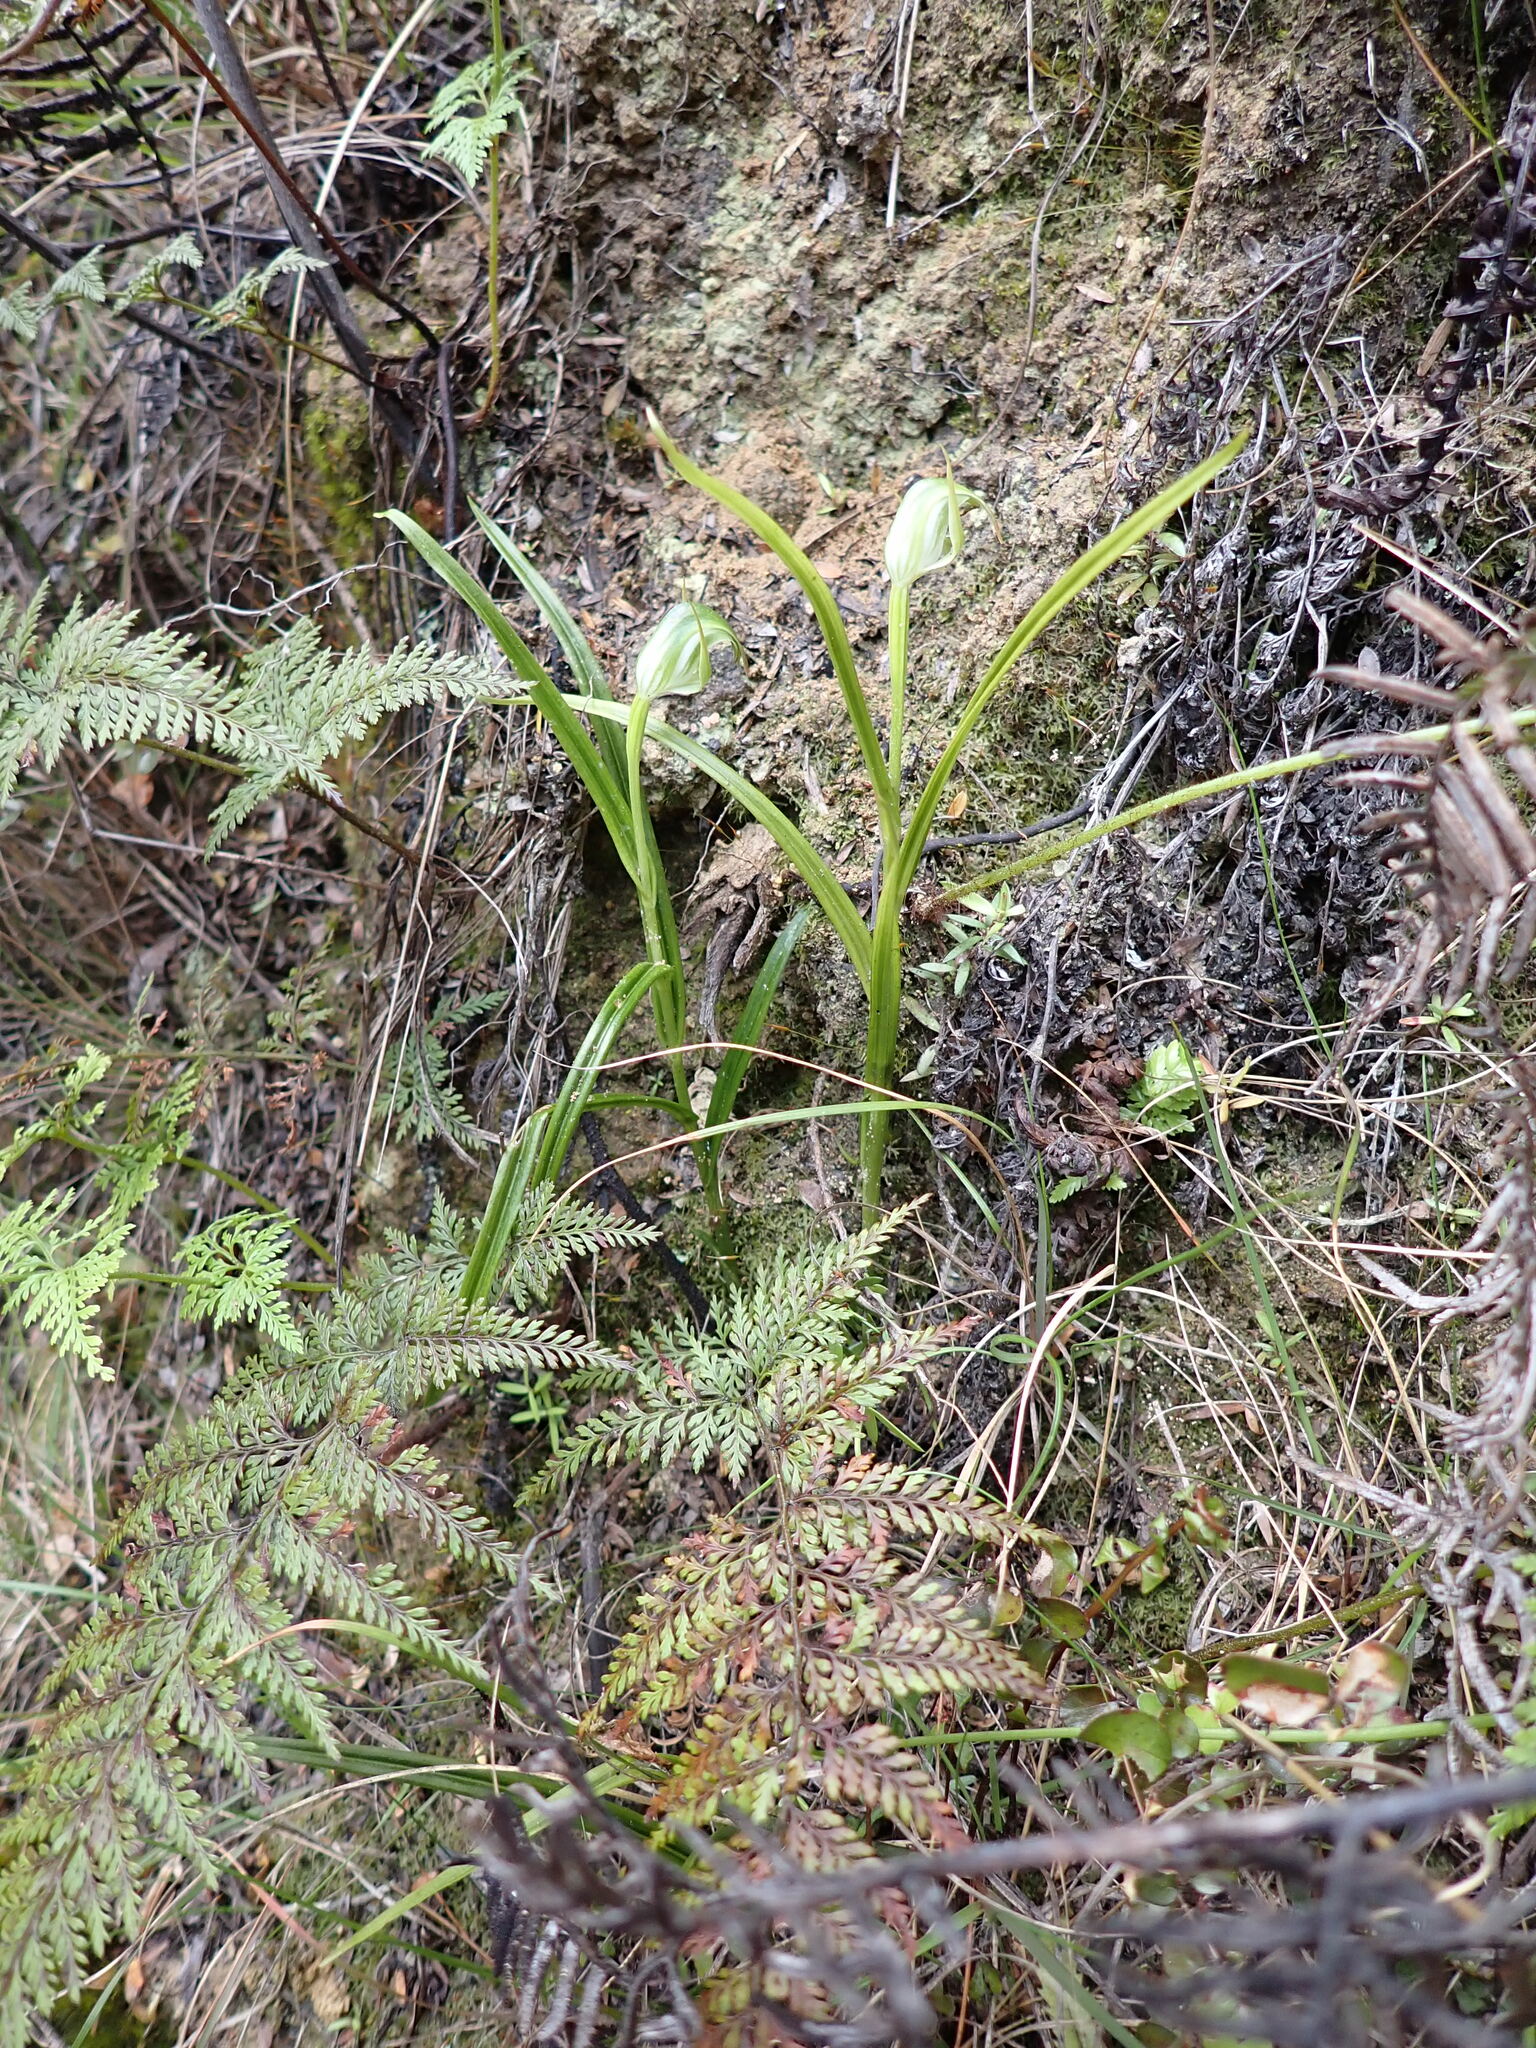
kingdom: Plantae
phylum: Tracheophyta
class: Liliopsida
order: Asparagales
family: Orchidaceae
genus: Pterostylis
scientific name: Pterostylis graminea
